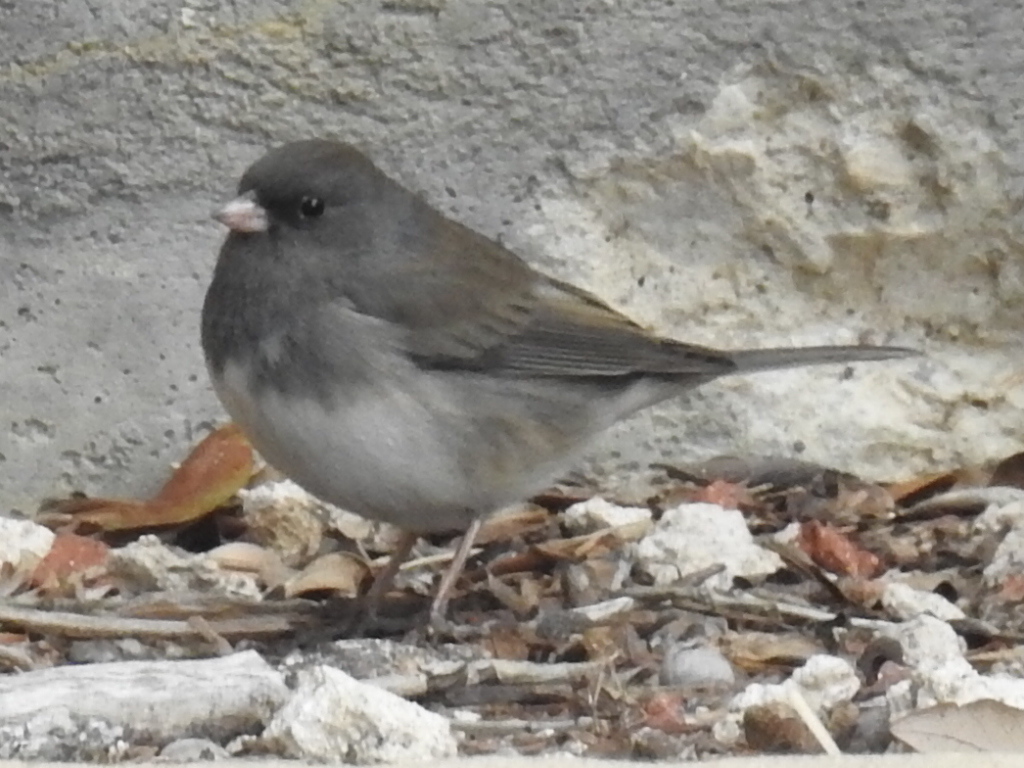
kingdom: Animalia
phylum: Chordata
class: Aves
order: Passeriformes
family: Passerellidae
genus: Junco
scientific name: Junco hyemalis
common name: Dark-eyed junco
